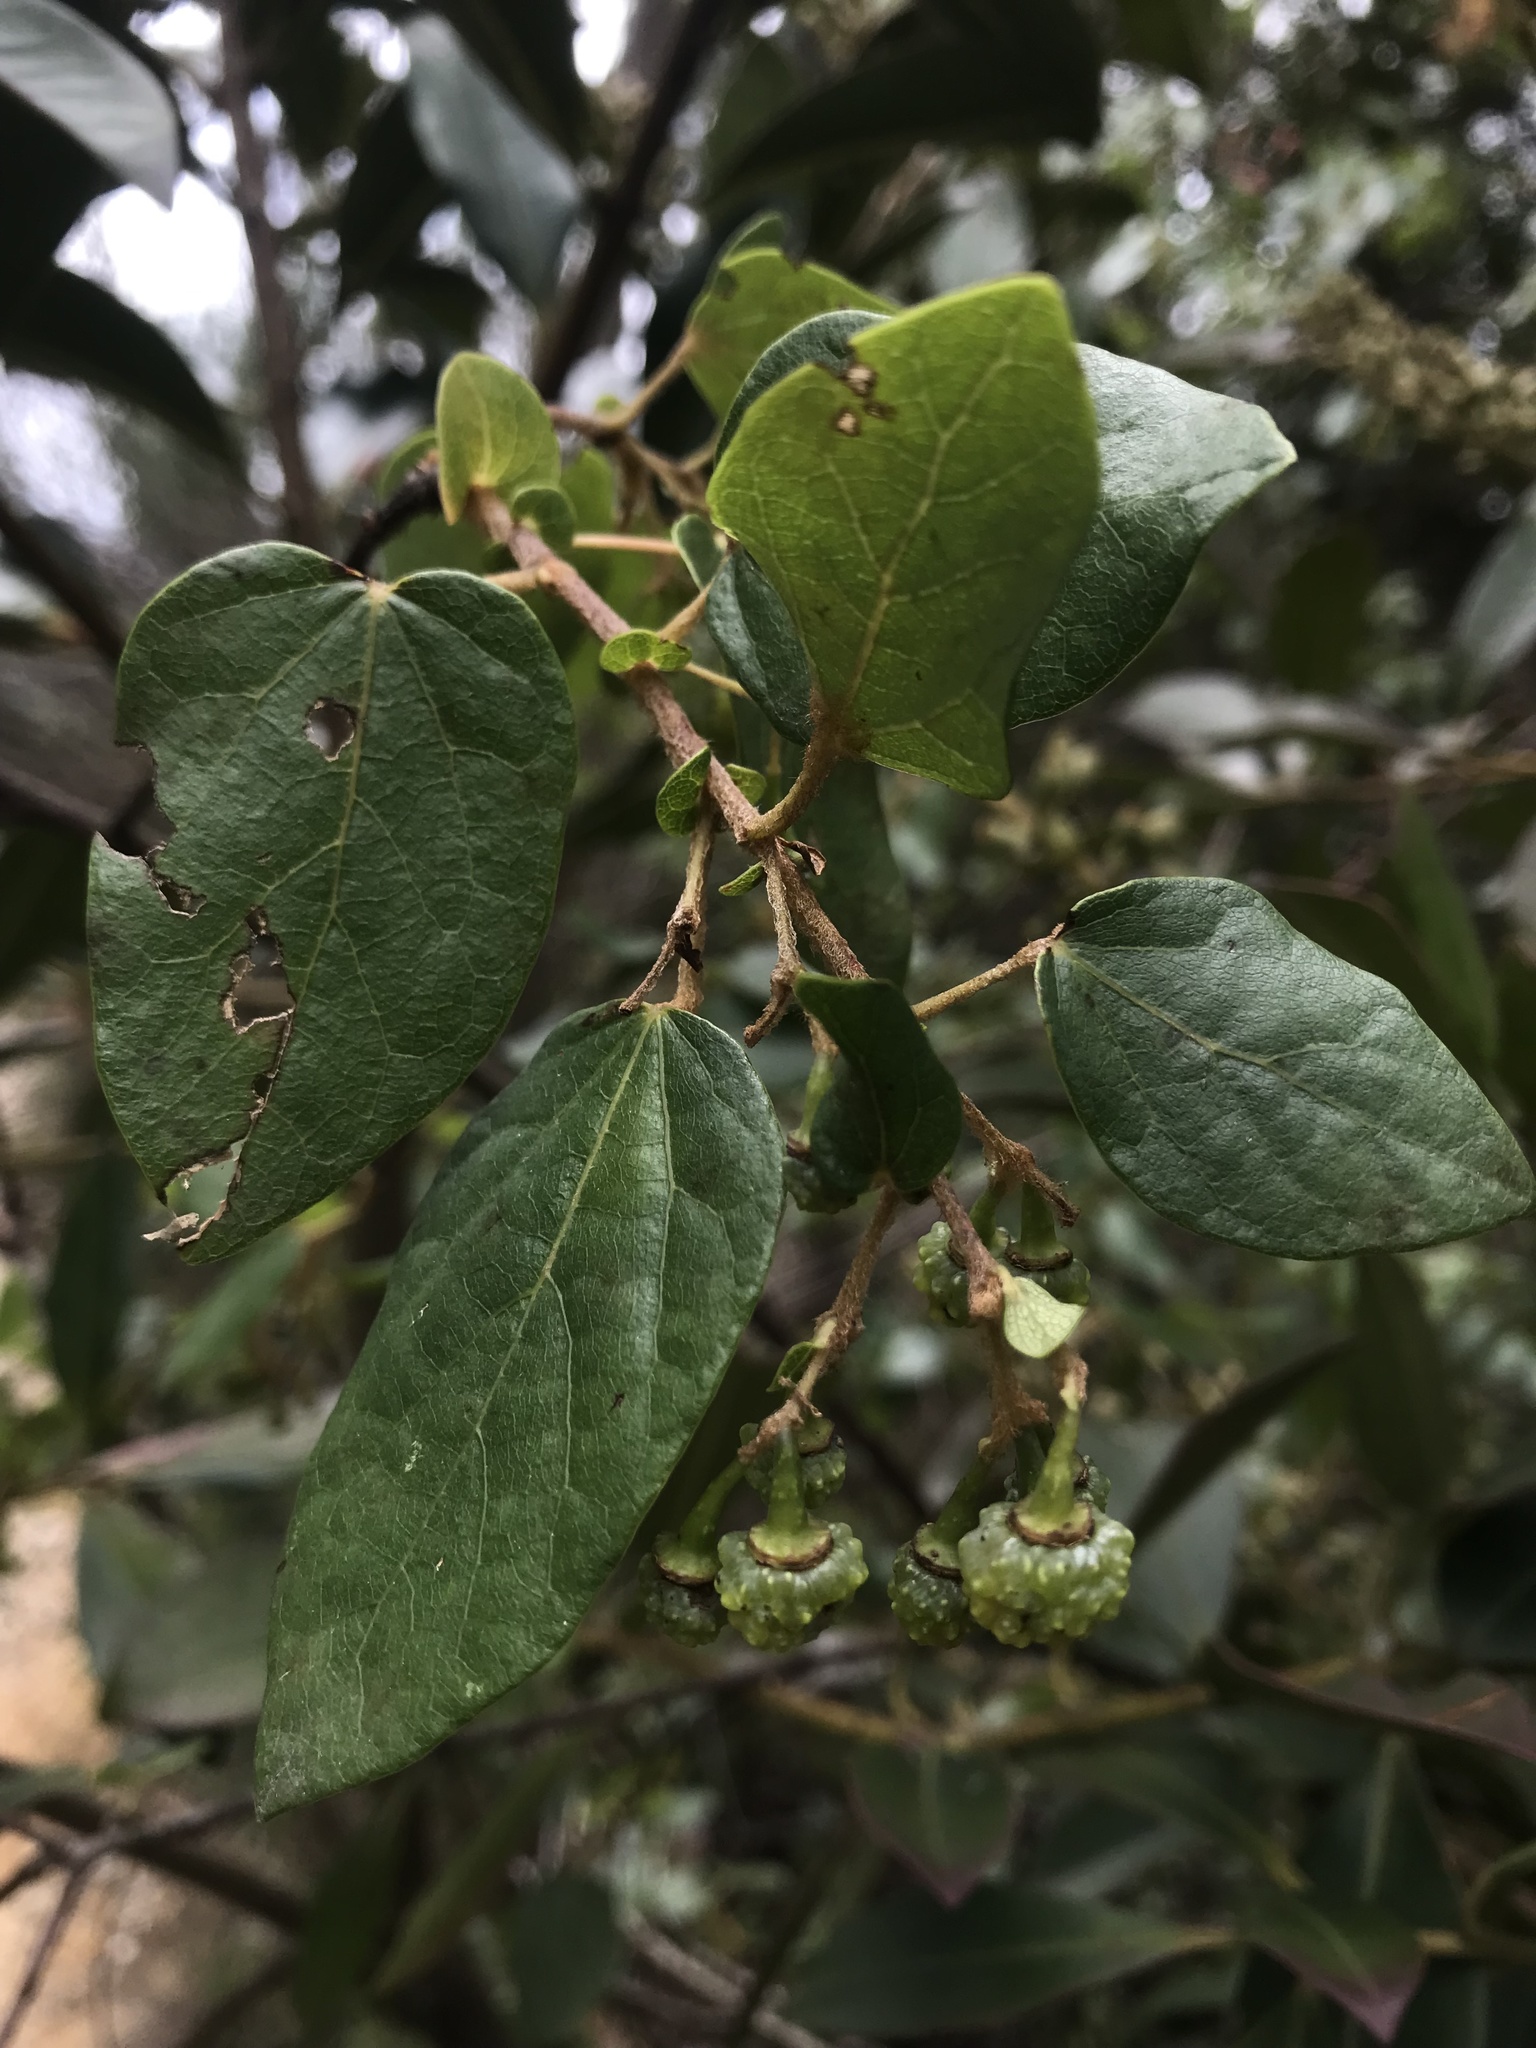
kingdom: Plantae
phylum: Tracheophyta
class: Magnoliopsida
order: Oxalidales
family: Elaeocarpaceae
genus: Vallea
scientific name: Vallea stipularis
